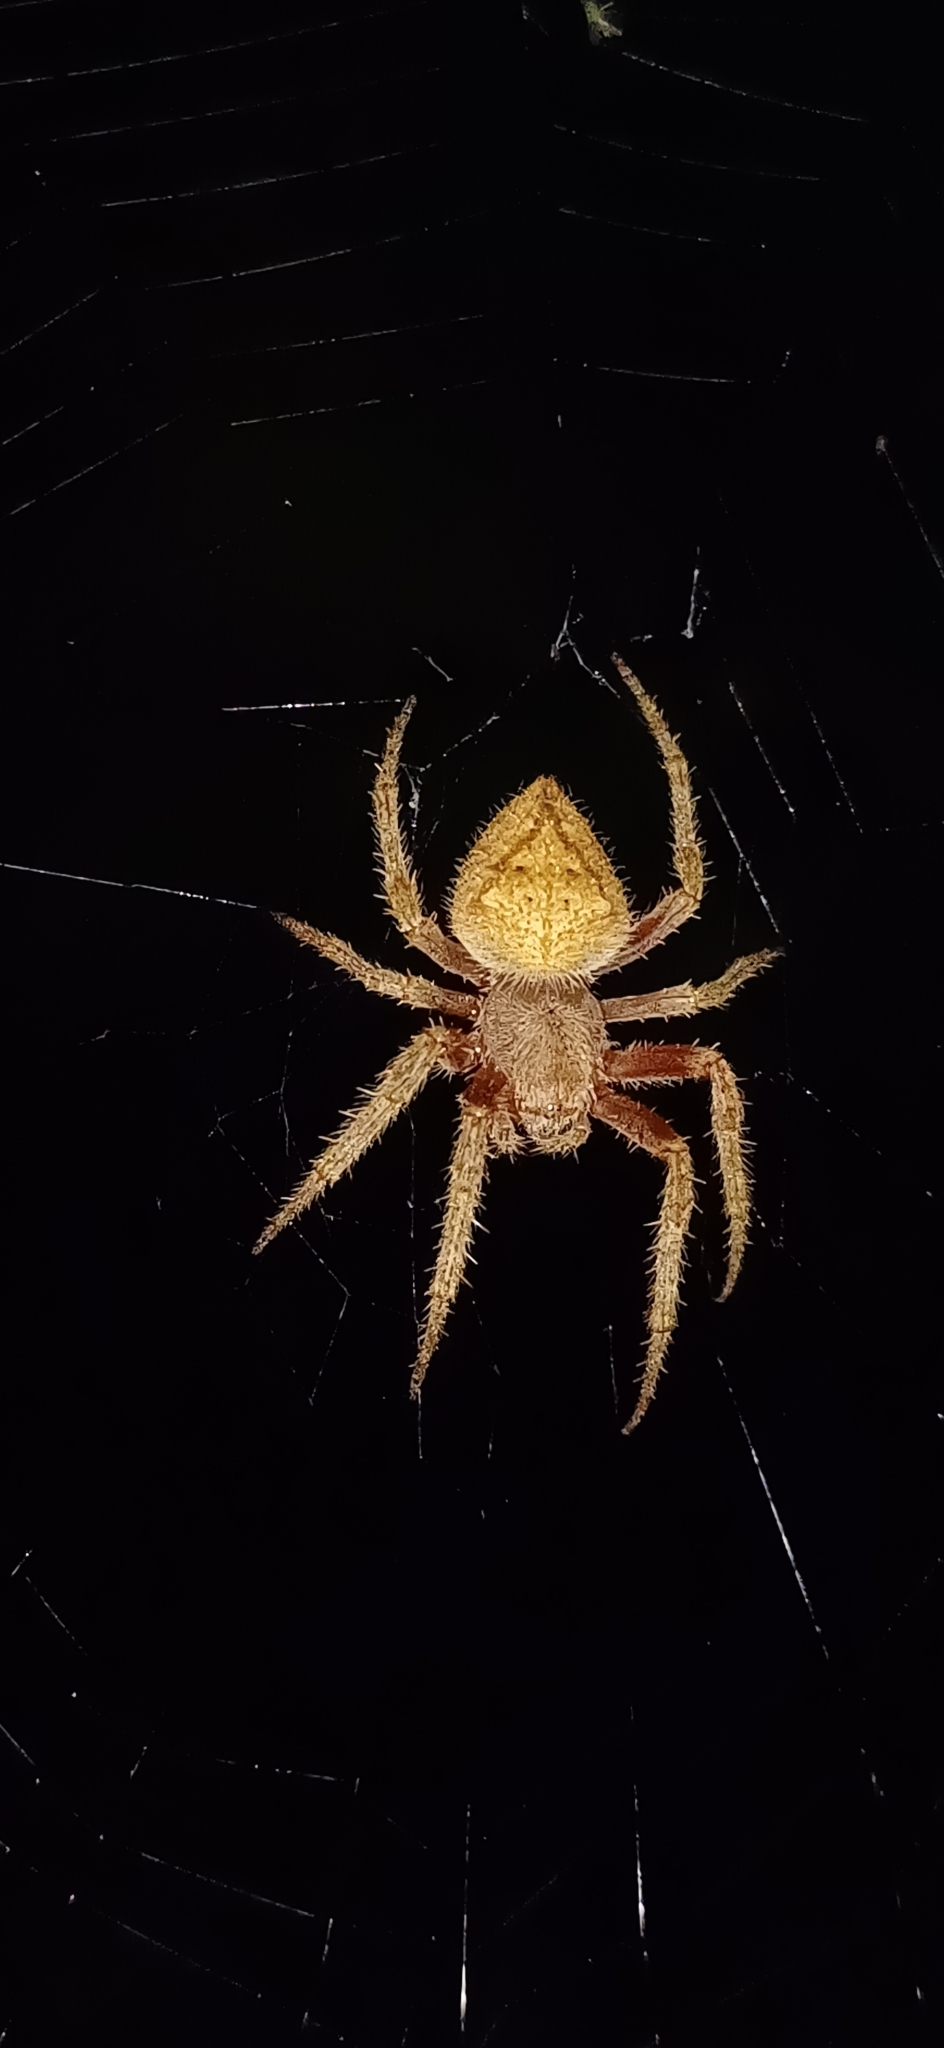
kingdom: Animalia
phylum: Arthropoda
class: Arachnida
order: Araneae
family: Araneidae
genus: Eriophora
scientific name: Eriophora edax
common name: Orb weavers
